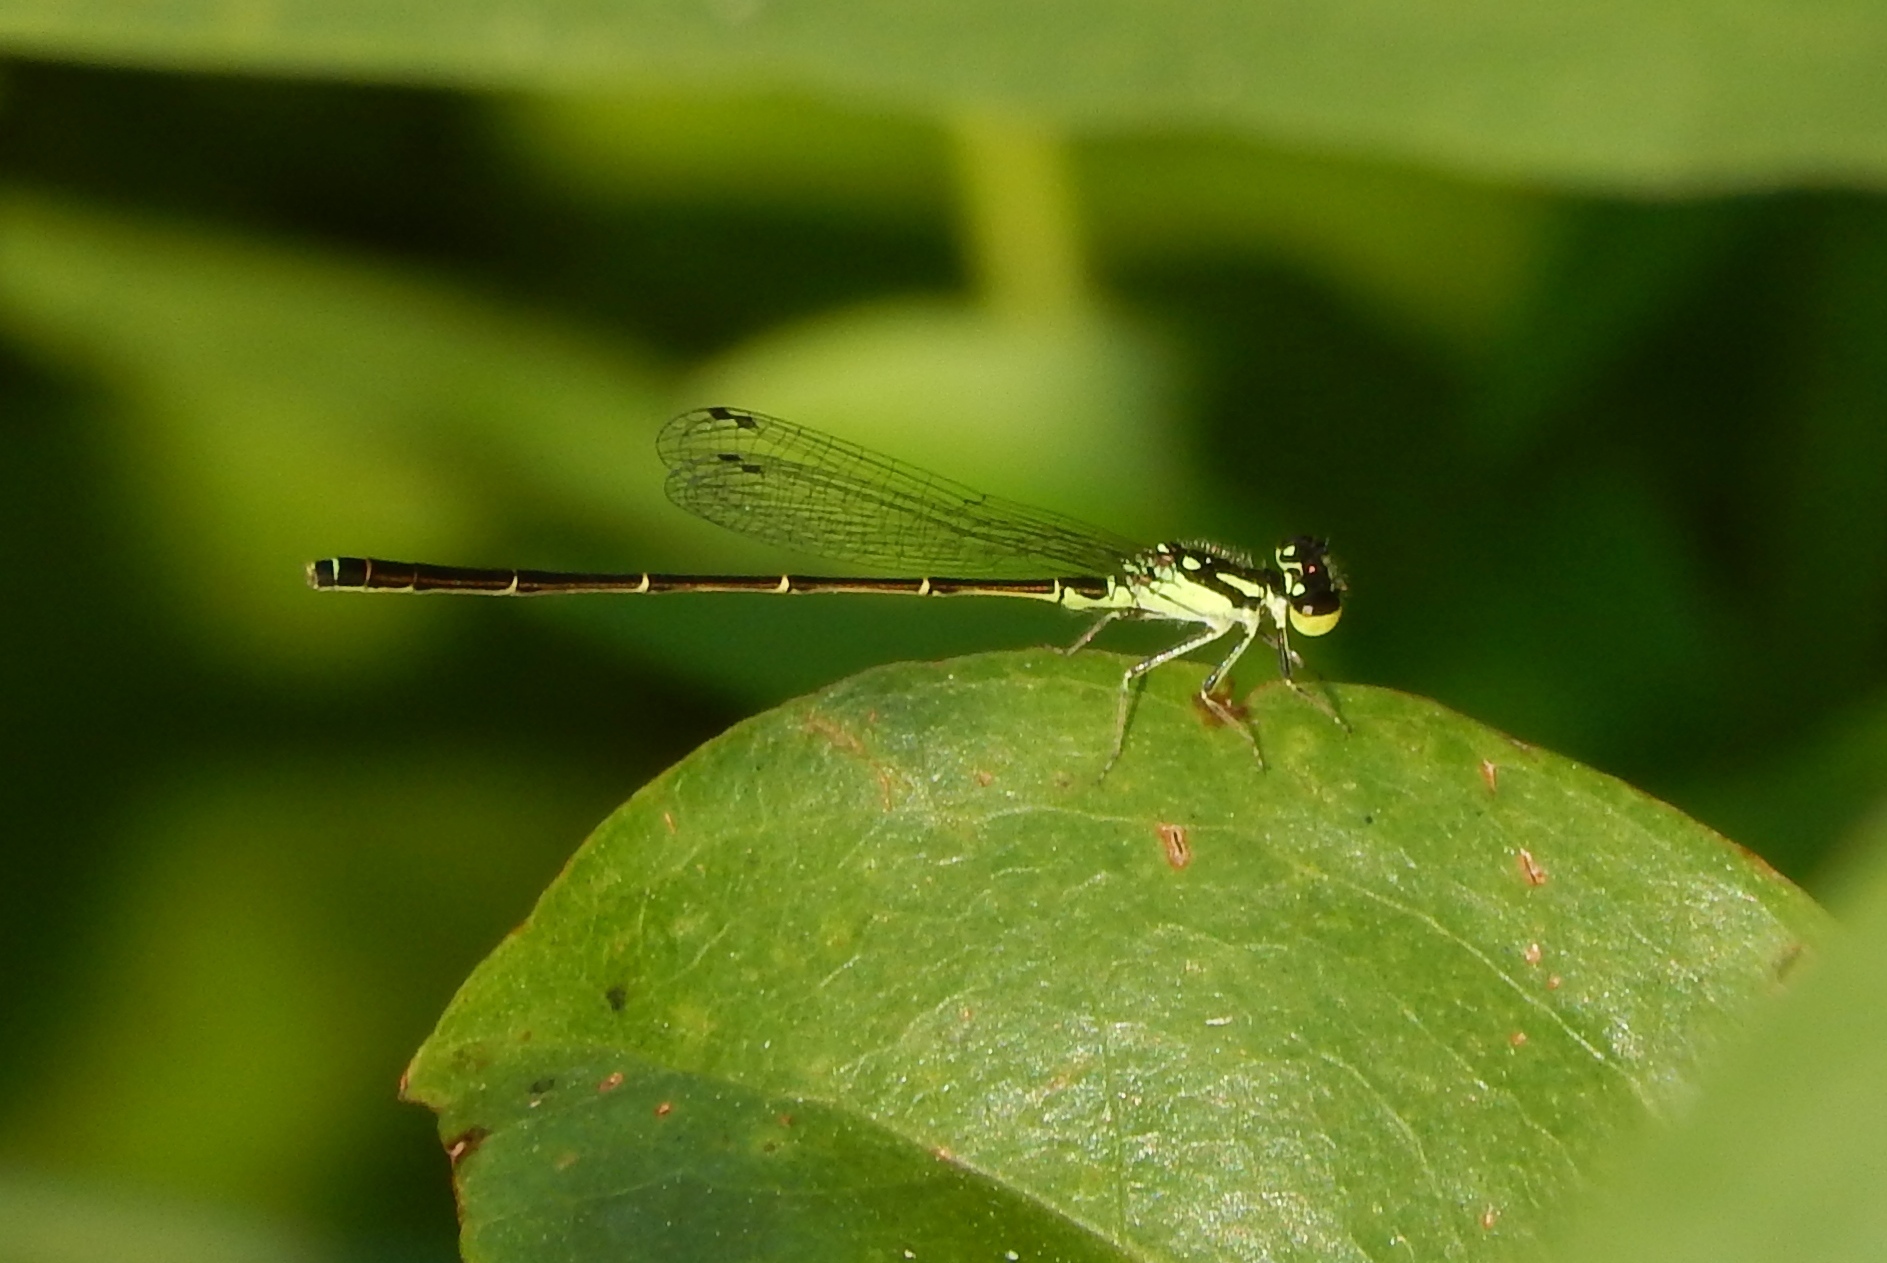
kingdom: Animalia
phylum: Arthropoda
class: Insecta
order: Odonata
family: Coenagrionidae
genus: Ischnura
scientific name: Ischnura posita
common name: Fragile forktail
